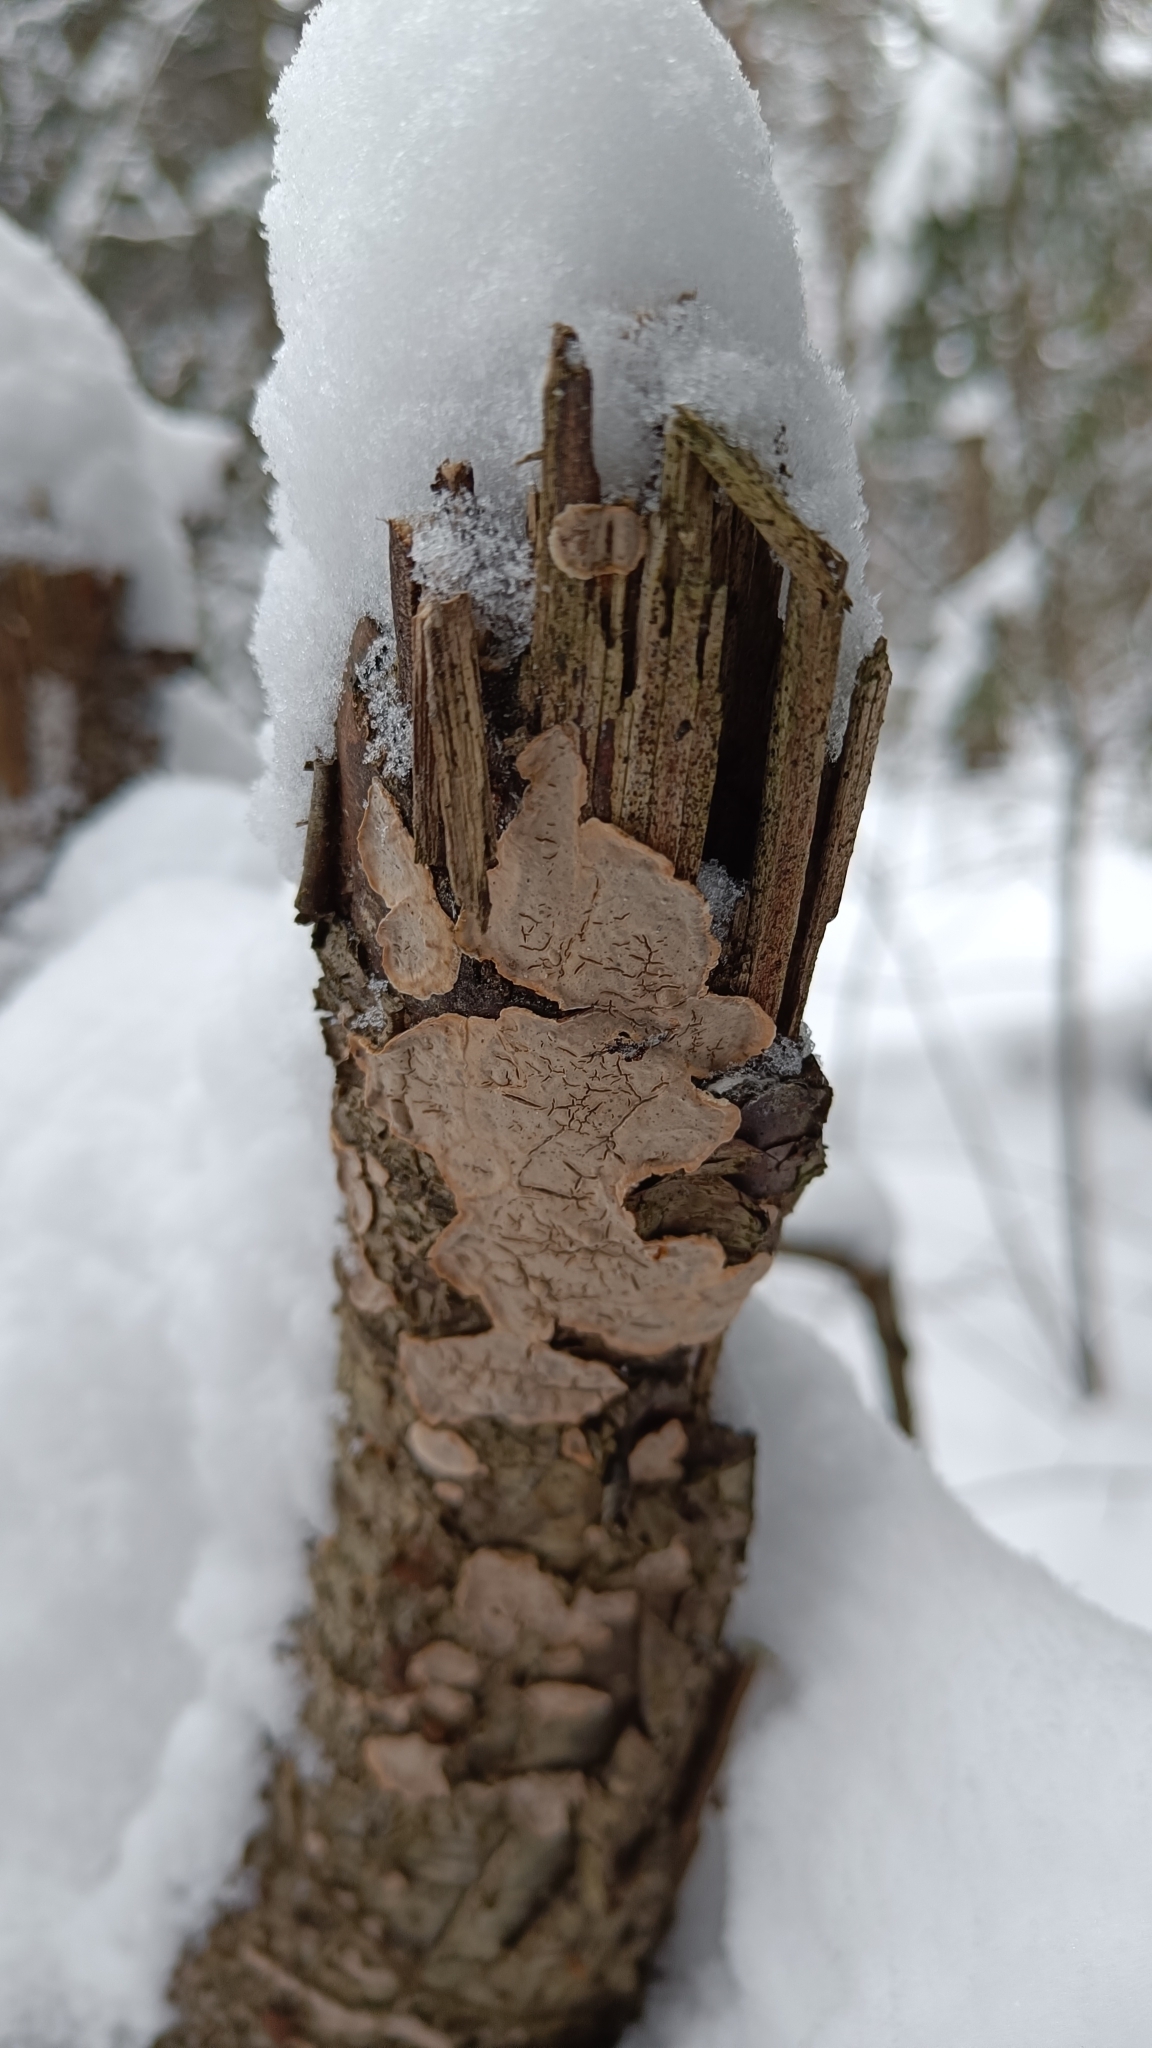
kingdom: Fungi
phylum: Basidiomycota
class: Agaricomycetes
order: Russulales
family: Stereaceae
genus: Stereum
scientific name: Stereum rugosum
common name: Bleeding broadleaf crust
